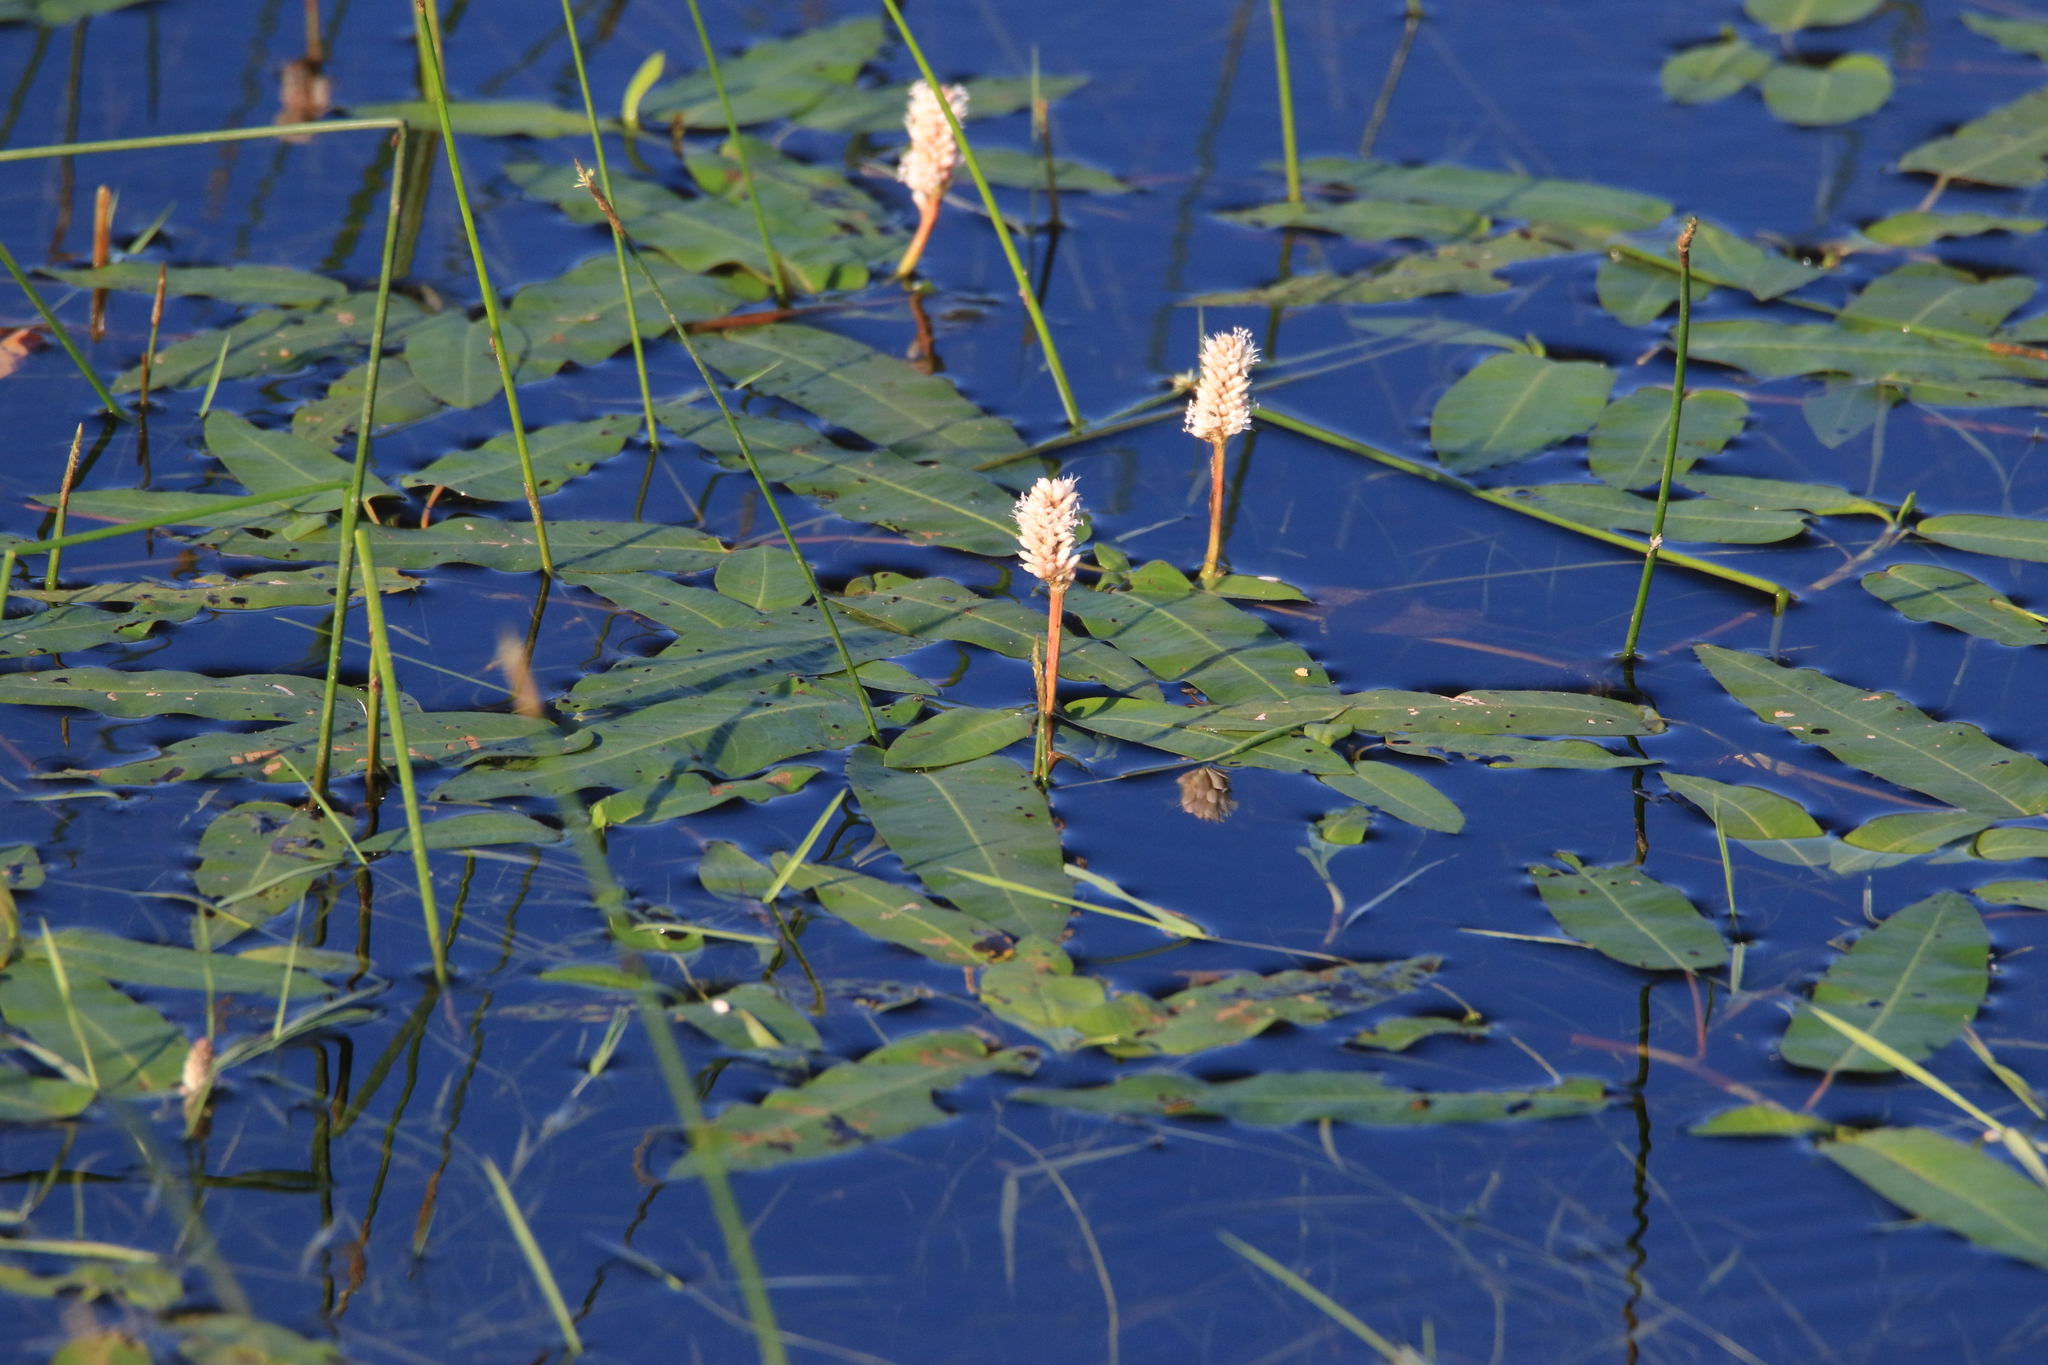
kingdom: Plantae
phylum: Tracheophyta
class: Magnoliopsida
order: Caryophyllales
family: Polygonaceae
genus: Persicaria
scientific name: Persicaria amphibia
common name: Amphibious bistort
